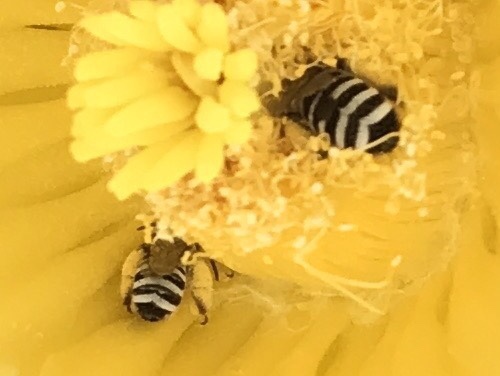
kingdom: Animalia
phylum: Arthropoda
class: Insecta
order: Hymenoptera
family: Apidae
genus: Svastra
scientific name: Svastra duplocincta
